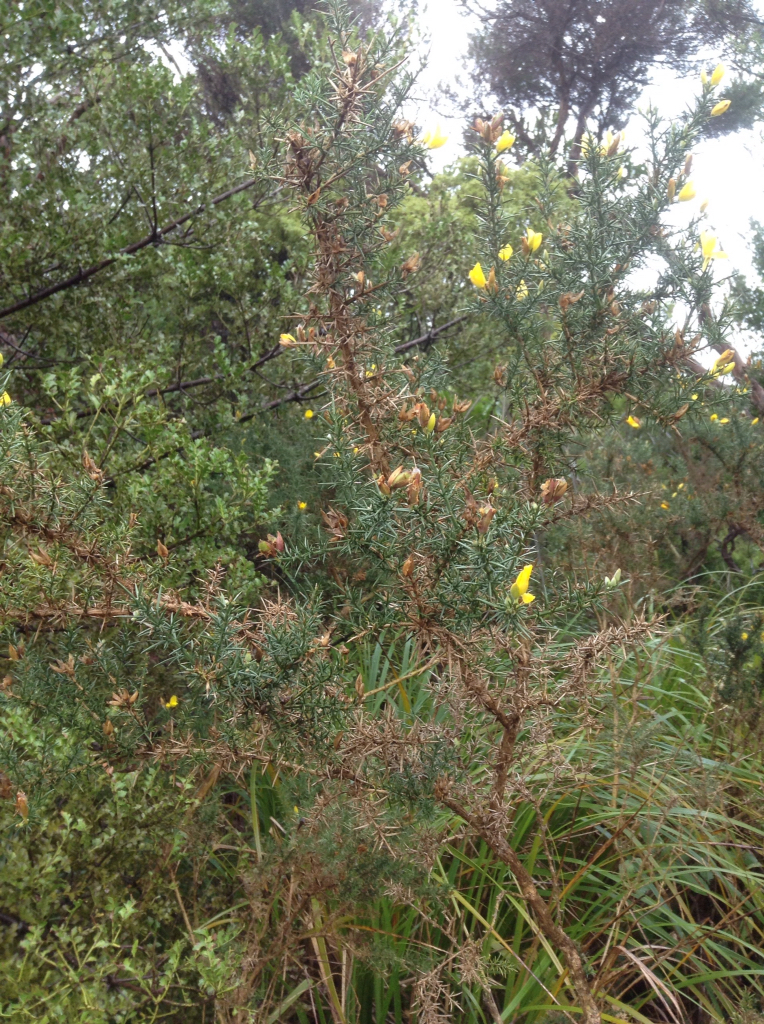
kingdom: Plantae
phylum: Tracheophyta
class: Magnoliopsida
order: Fabales
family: Fabaceae
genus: Ulex
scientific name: Ulex europaeus
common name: Common gorse
